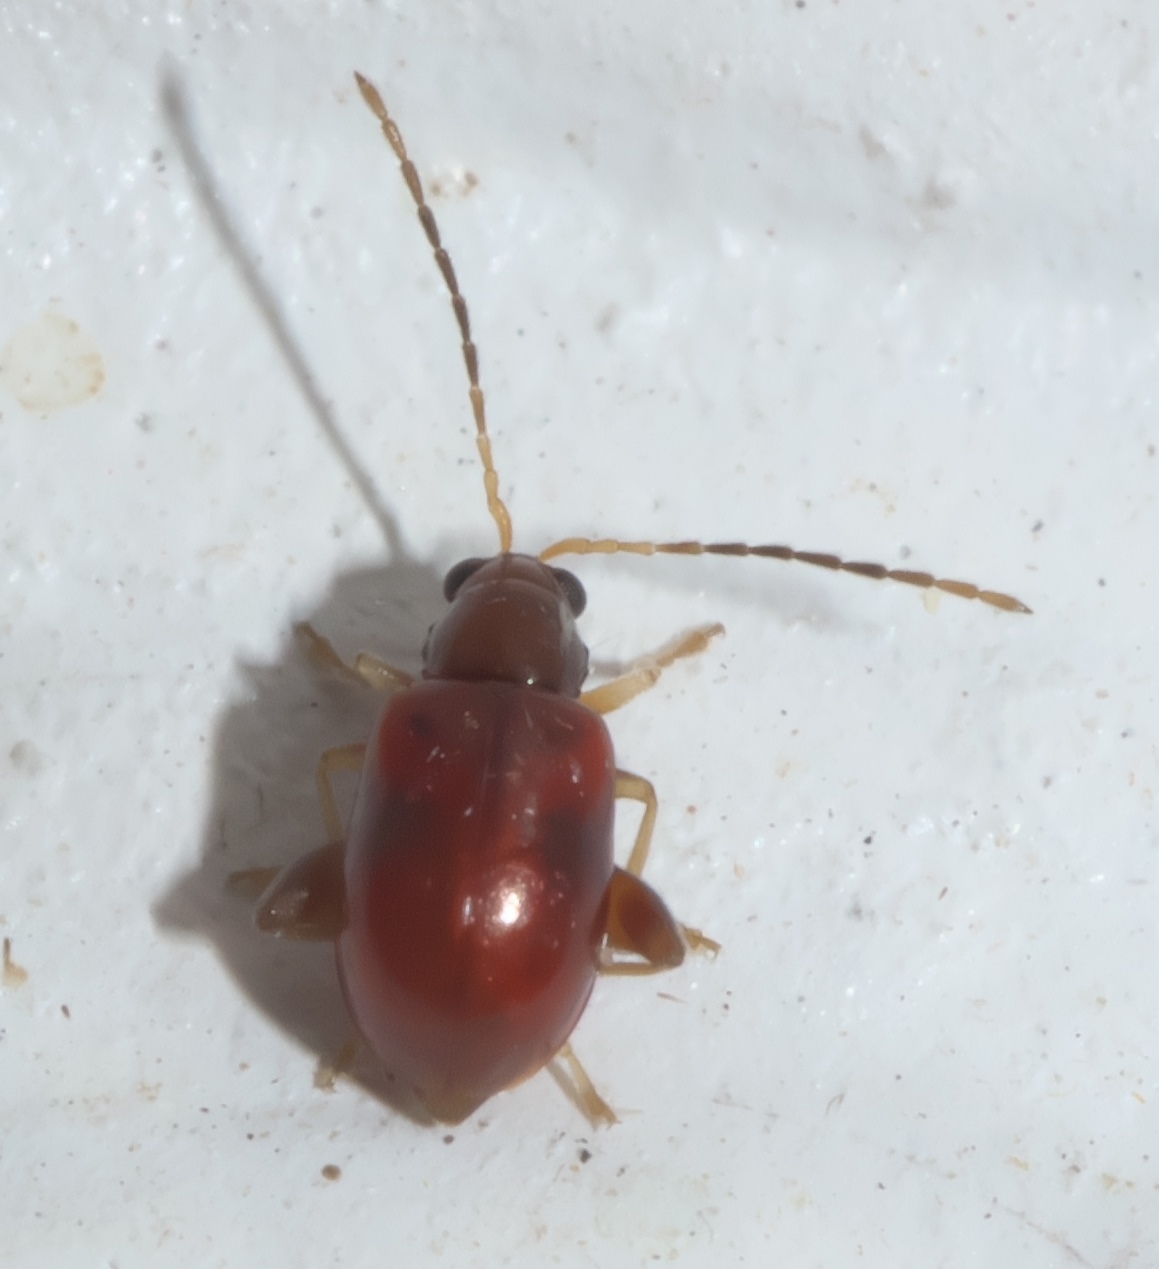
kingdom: Animalia
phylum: Arthropoda
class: Insecta
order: Coleoptera
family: Chrysomelidae
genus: Longitarsus
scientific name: Longitarsus varicornis
